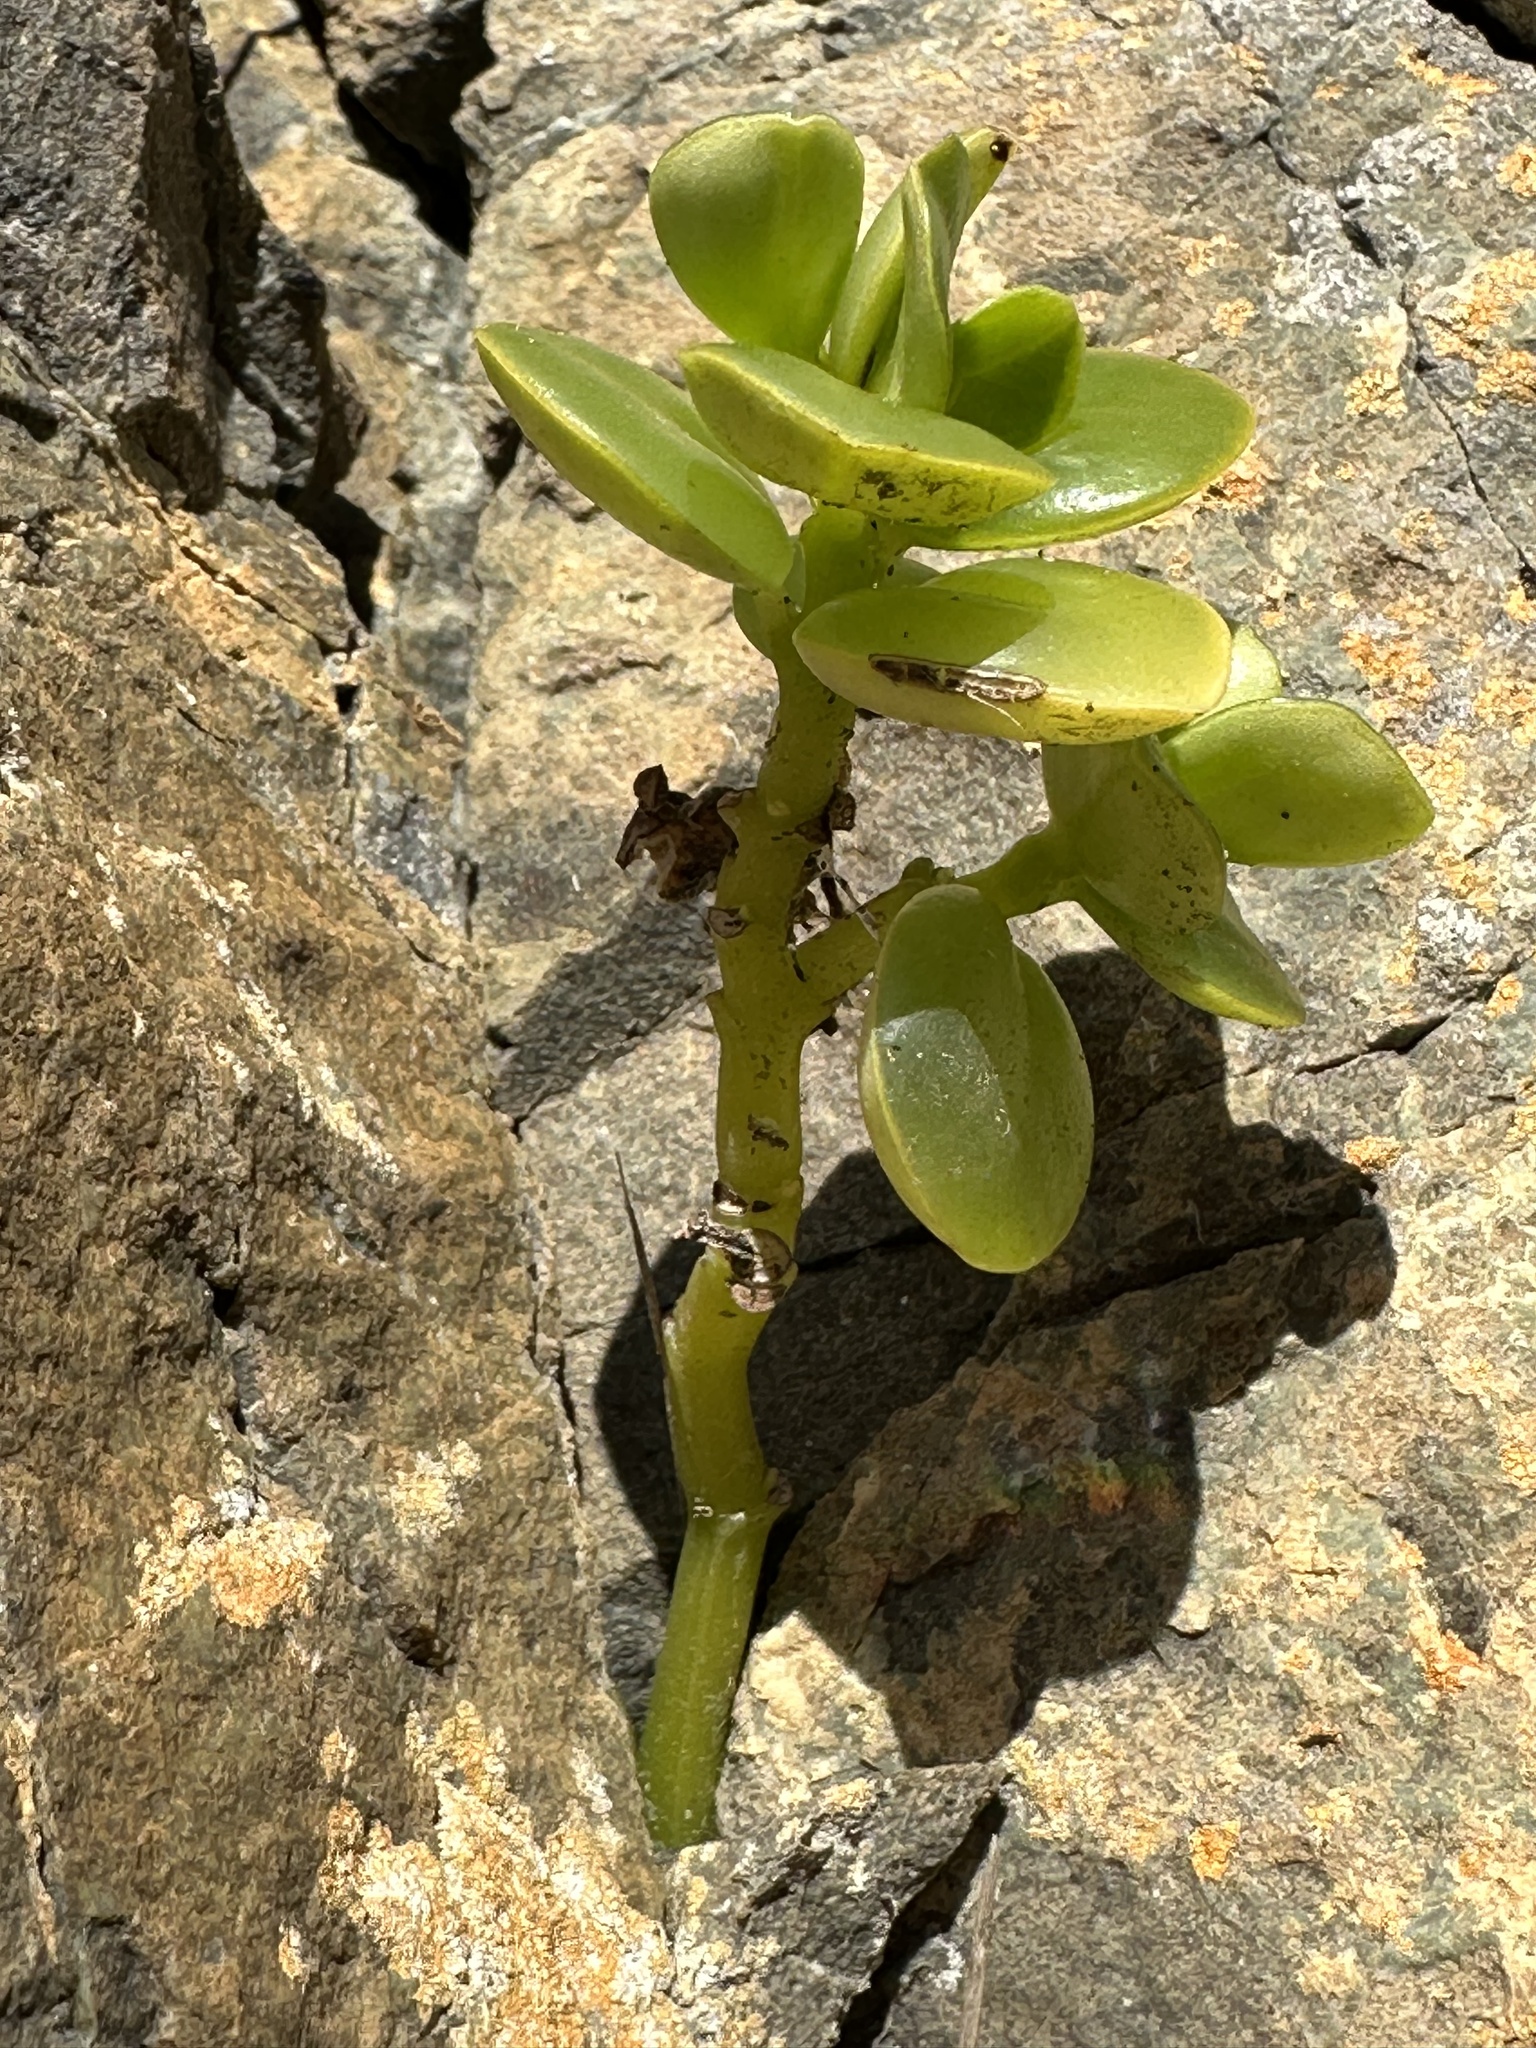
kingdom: Plantae
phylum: Tracheophyta
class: Magnoliopsida
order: Piperales
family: Piperaceae
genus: Peperomia
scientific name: Peperomia urvilleana
